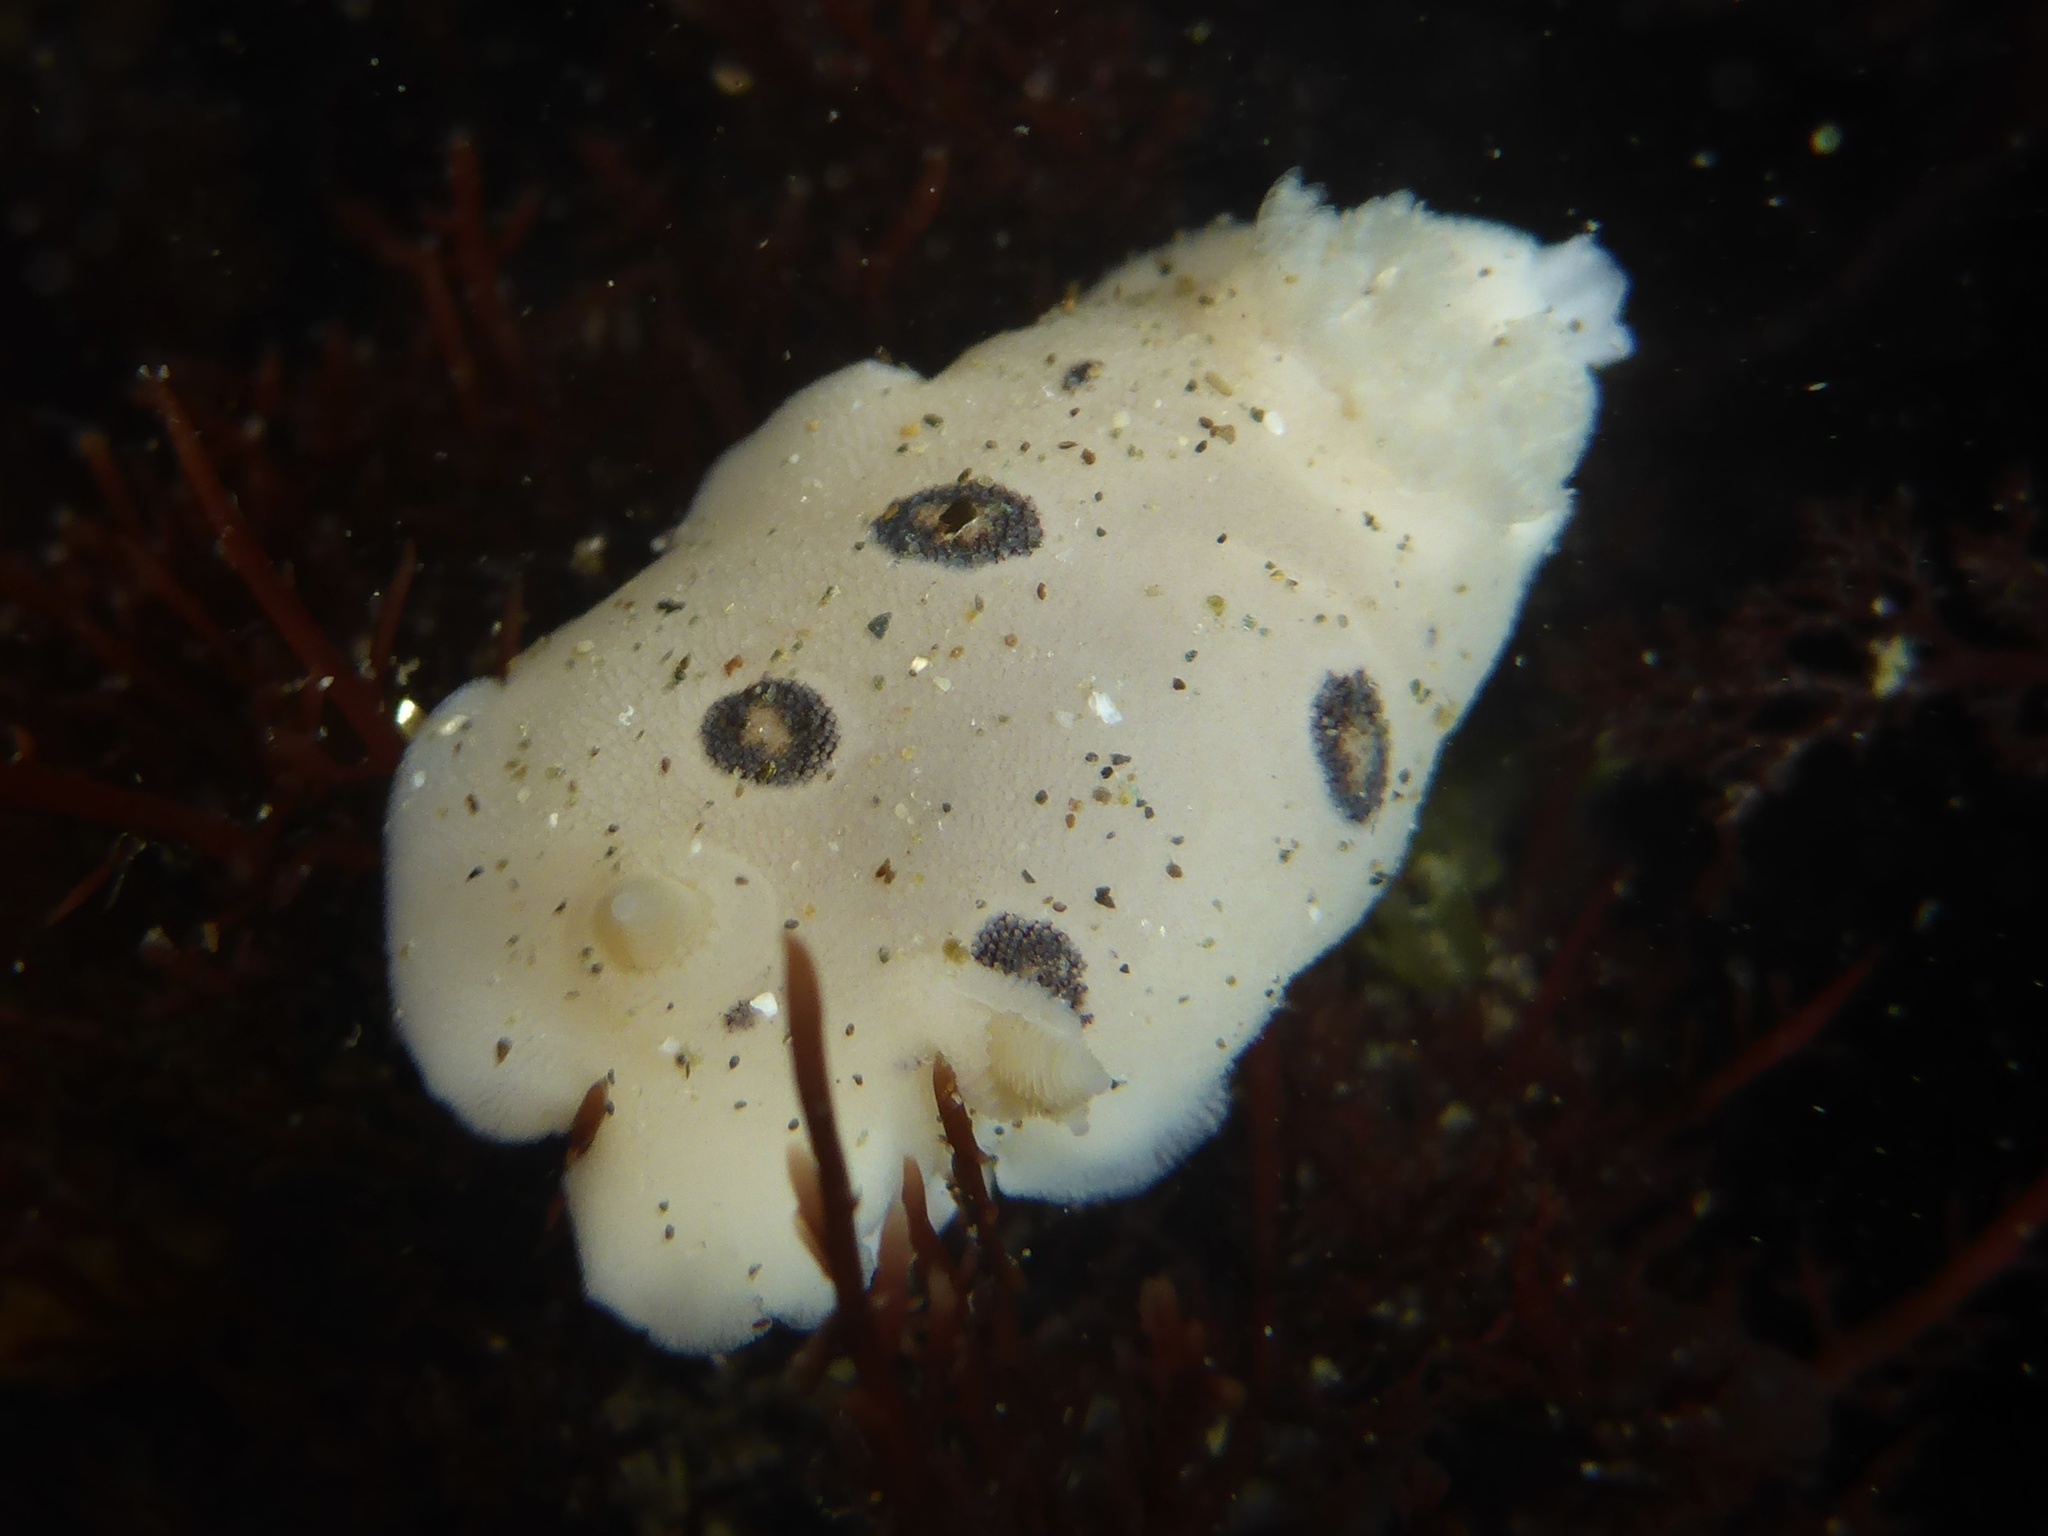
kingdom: Animalia
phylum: Mollusca
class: Gastropoda
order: Nudibranchia
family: Discodorididae
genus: Diaulula
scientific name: Diaulula sandiegensis
